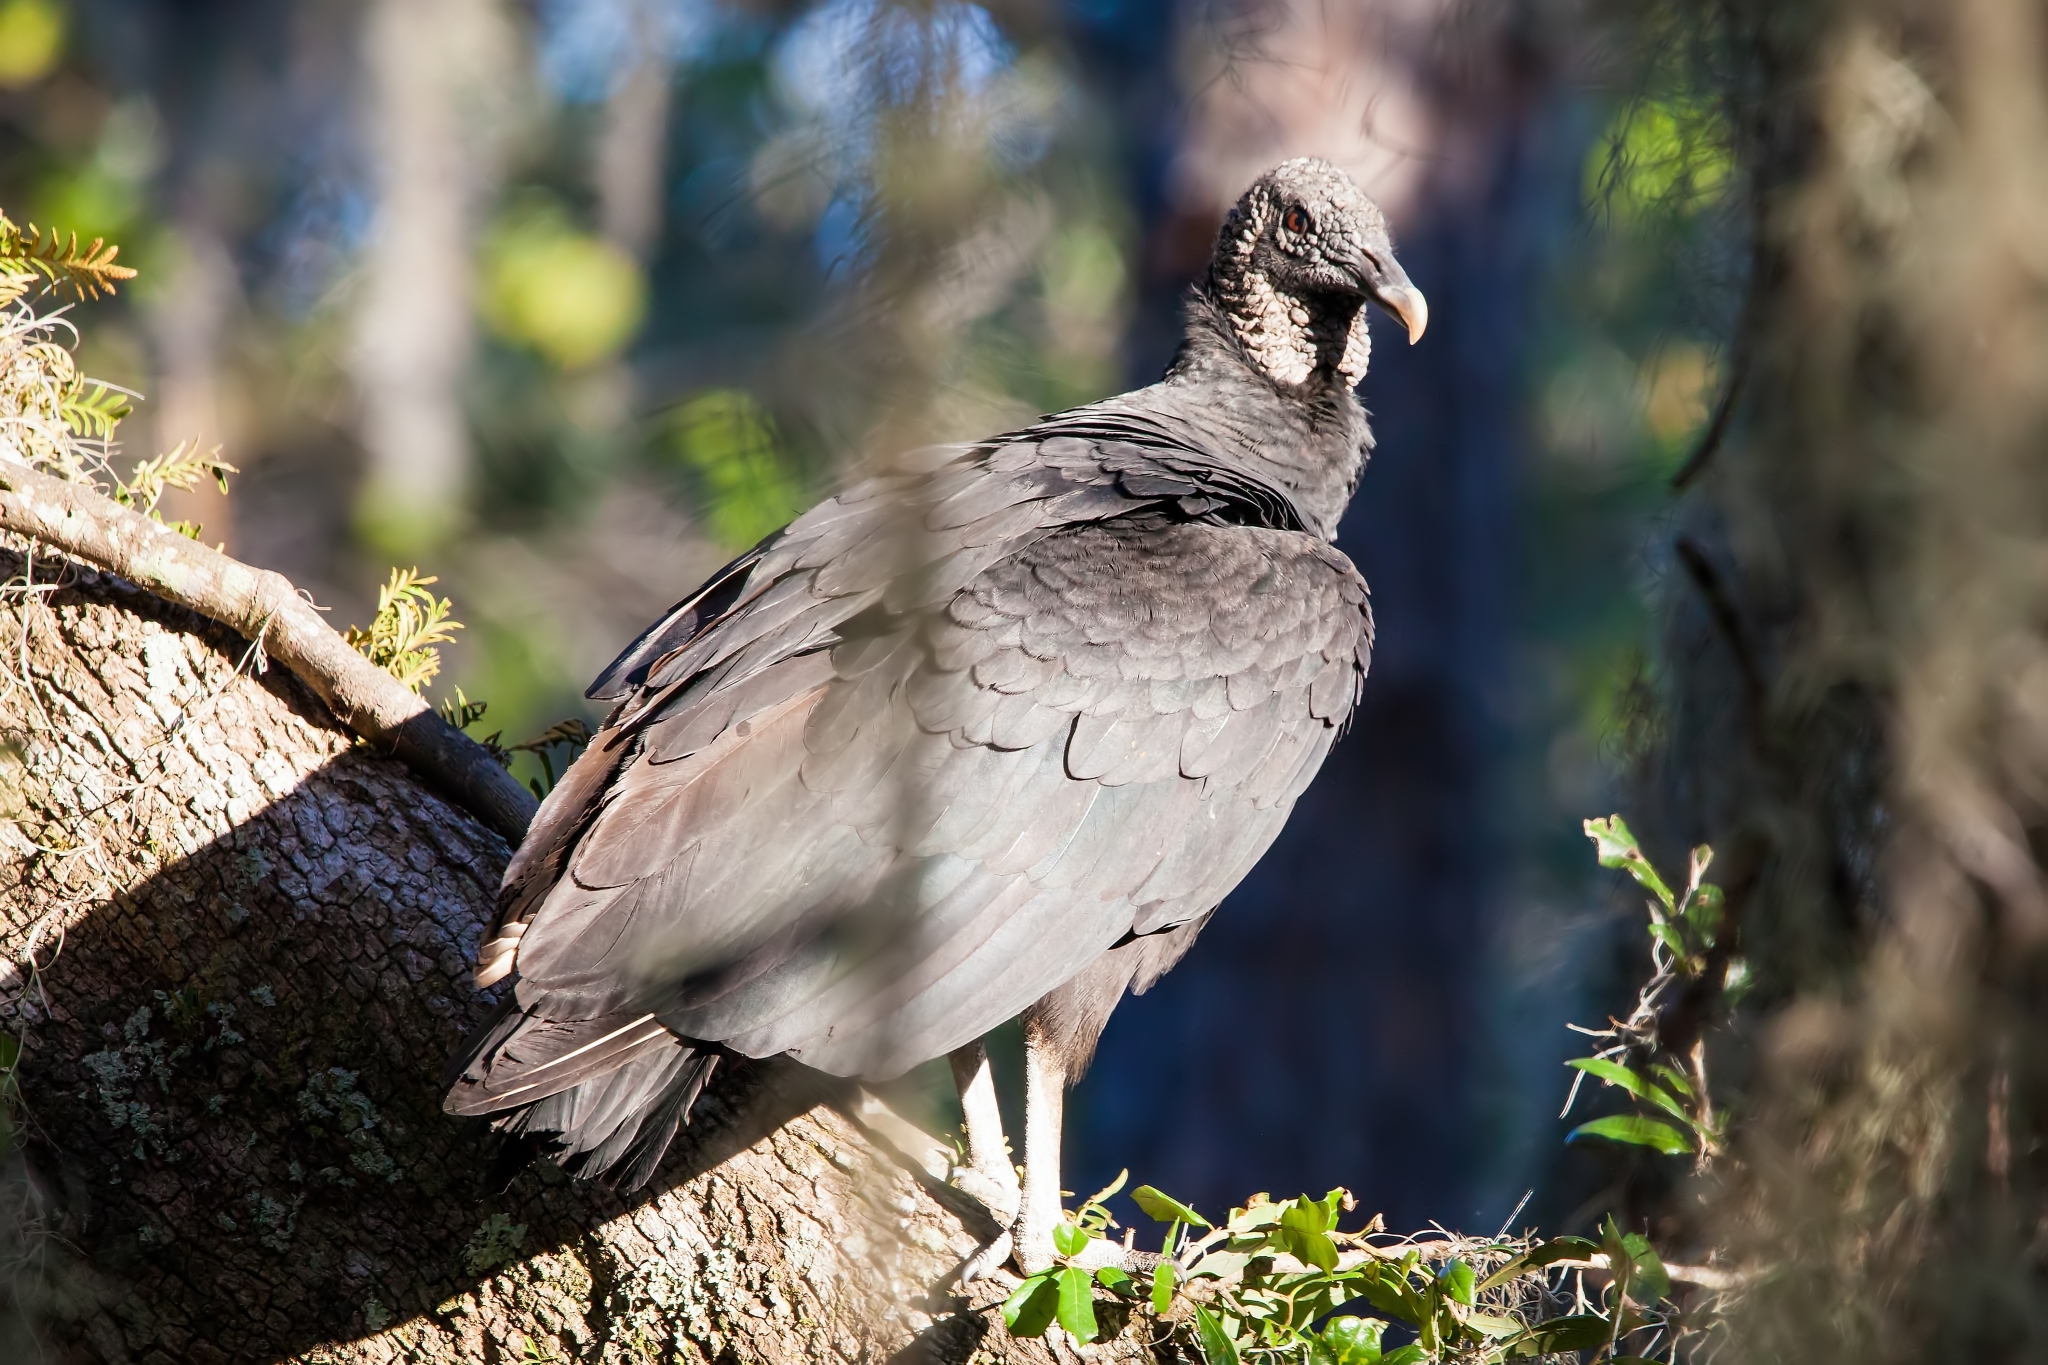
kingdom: Animalia
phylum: Chordata
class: Aves
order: Accipitriformes
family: Cathartidae
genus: Coragyps
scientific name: Coragyps atratus
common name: Black vulture
